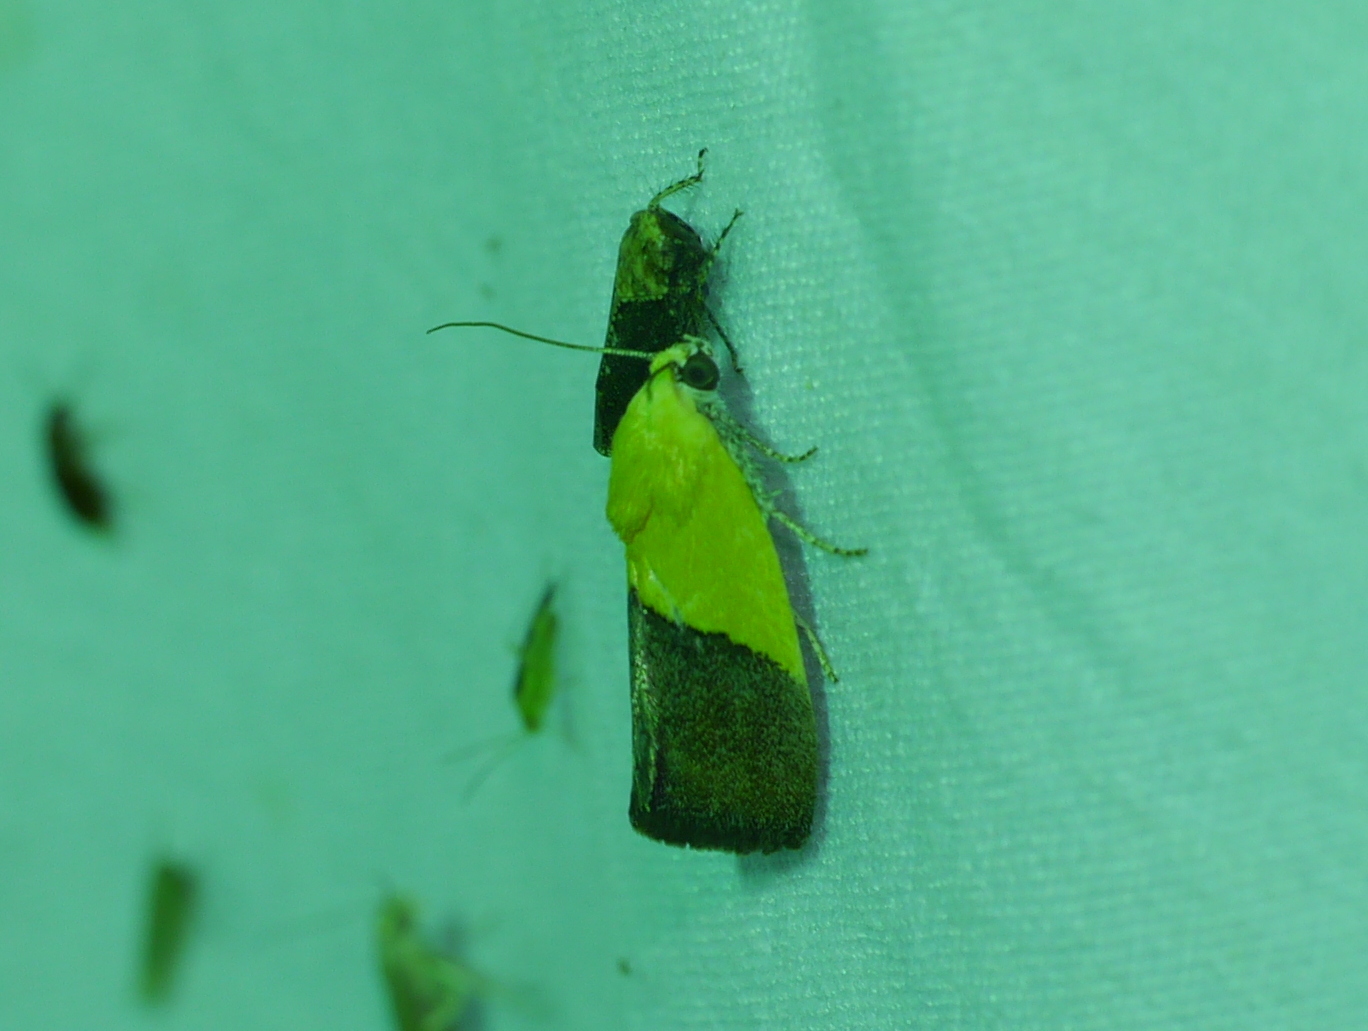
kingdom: Animalia
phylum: Arthropoda
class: Insecta
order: Lepidoptera
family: Noctuidae
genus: Acontia
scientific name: Acontia semiflava
